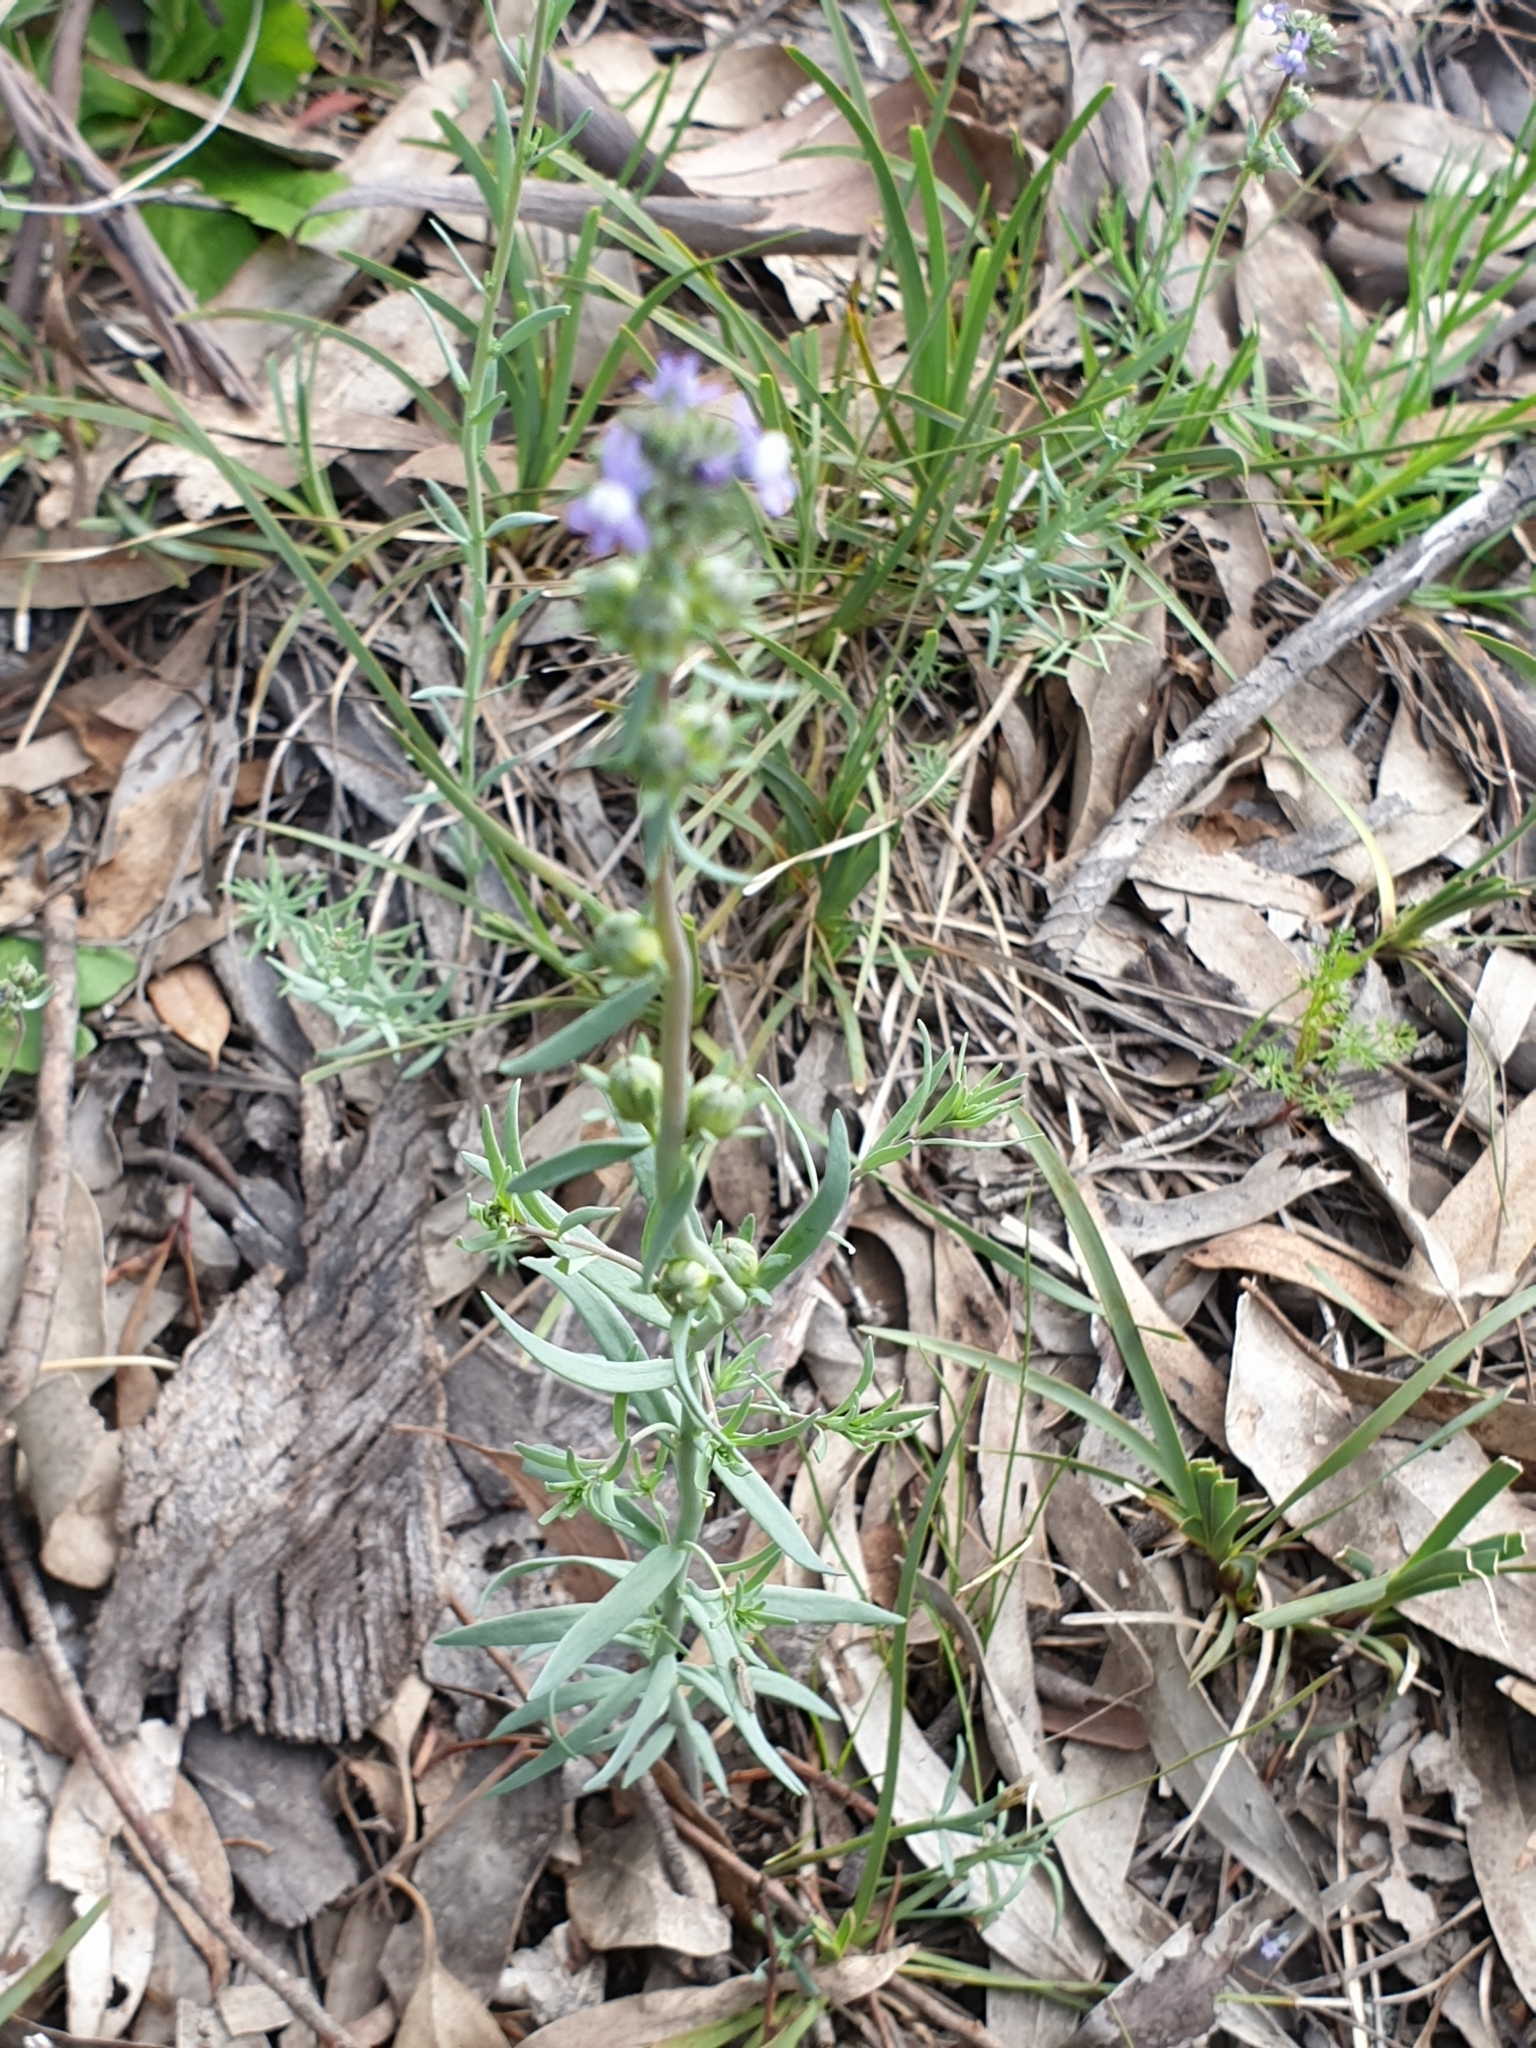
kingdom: Plantae
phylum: Tracheophyta
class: Magnoliopsida
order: Lamiales
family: Plantaginaceae
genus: Linaria
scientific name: Linaria arvensis
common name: Corn toadflax
